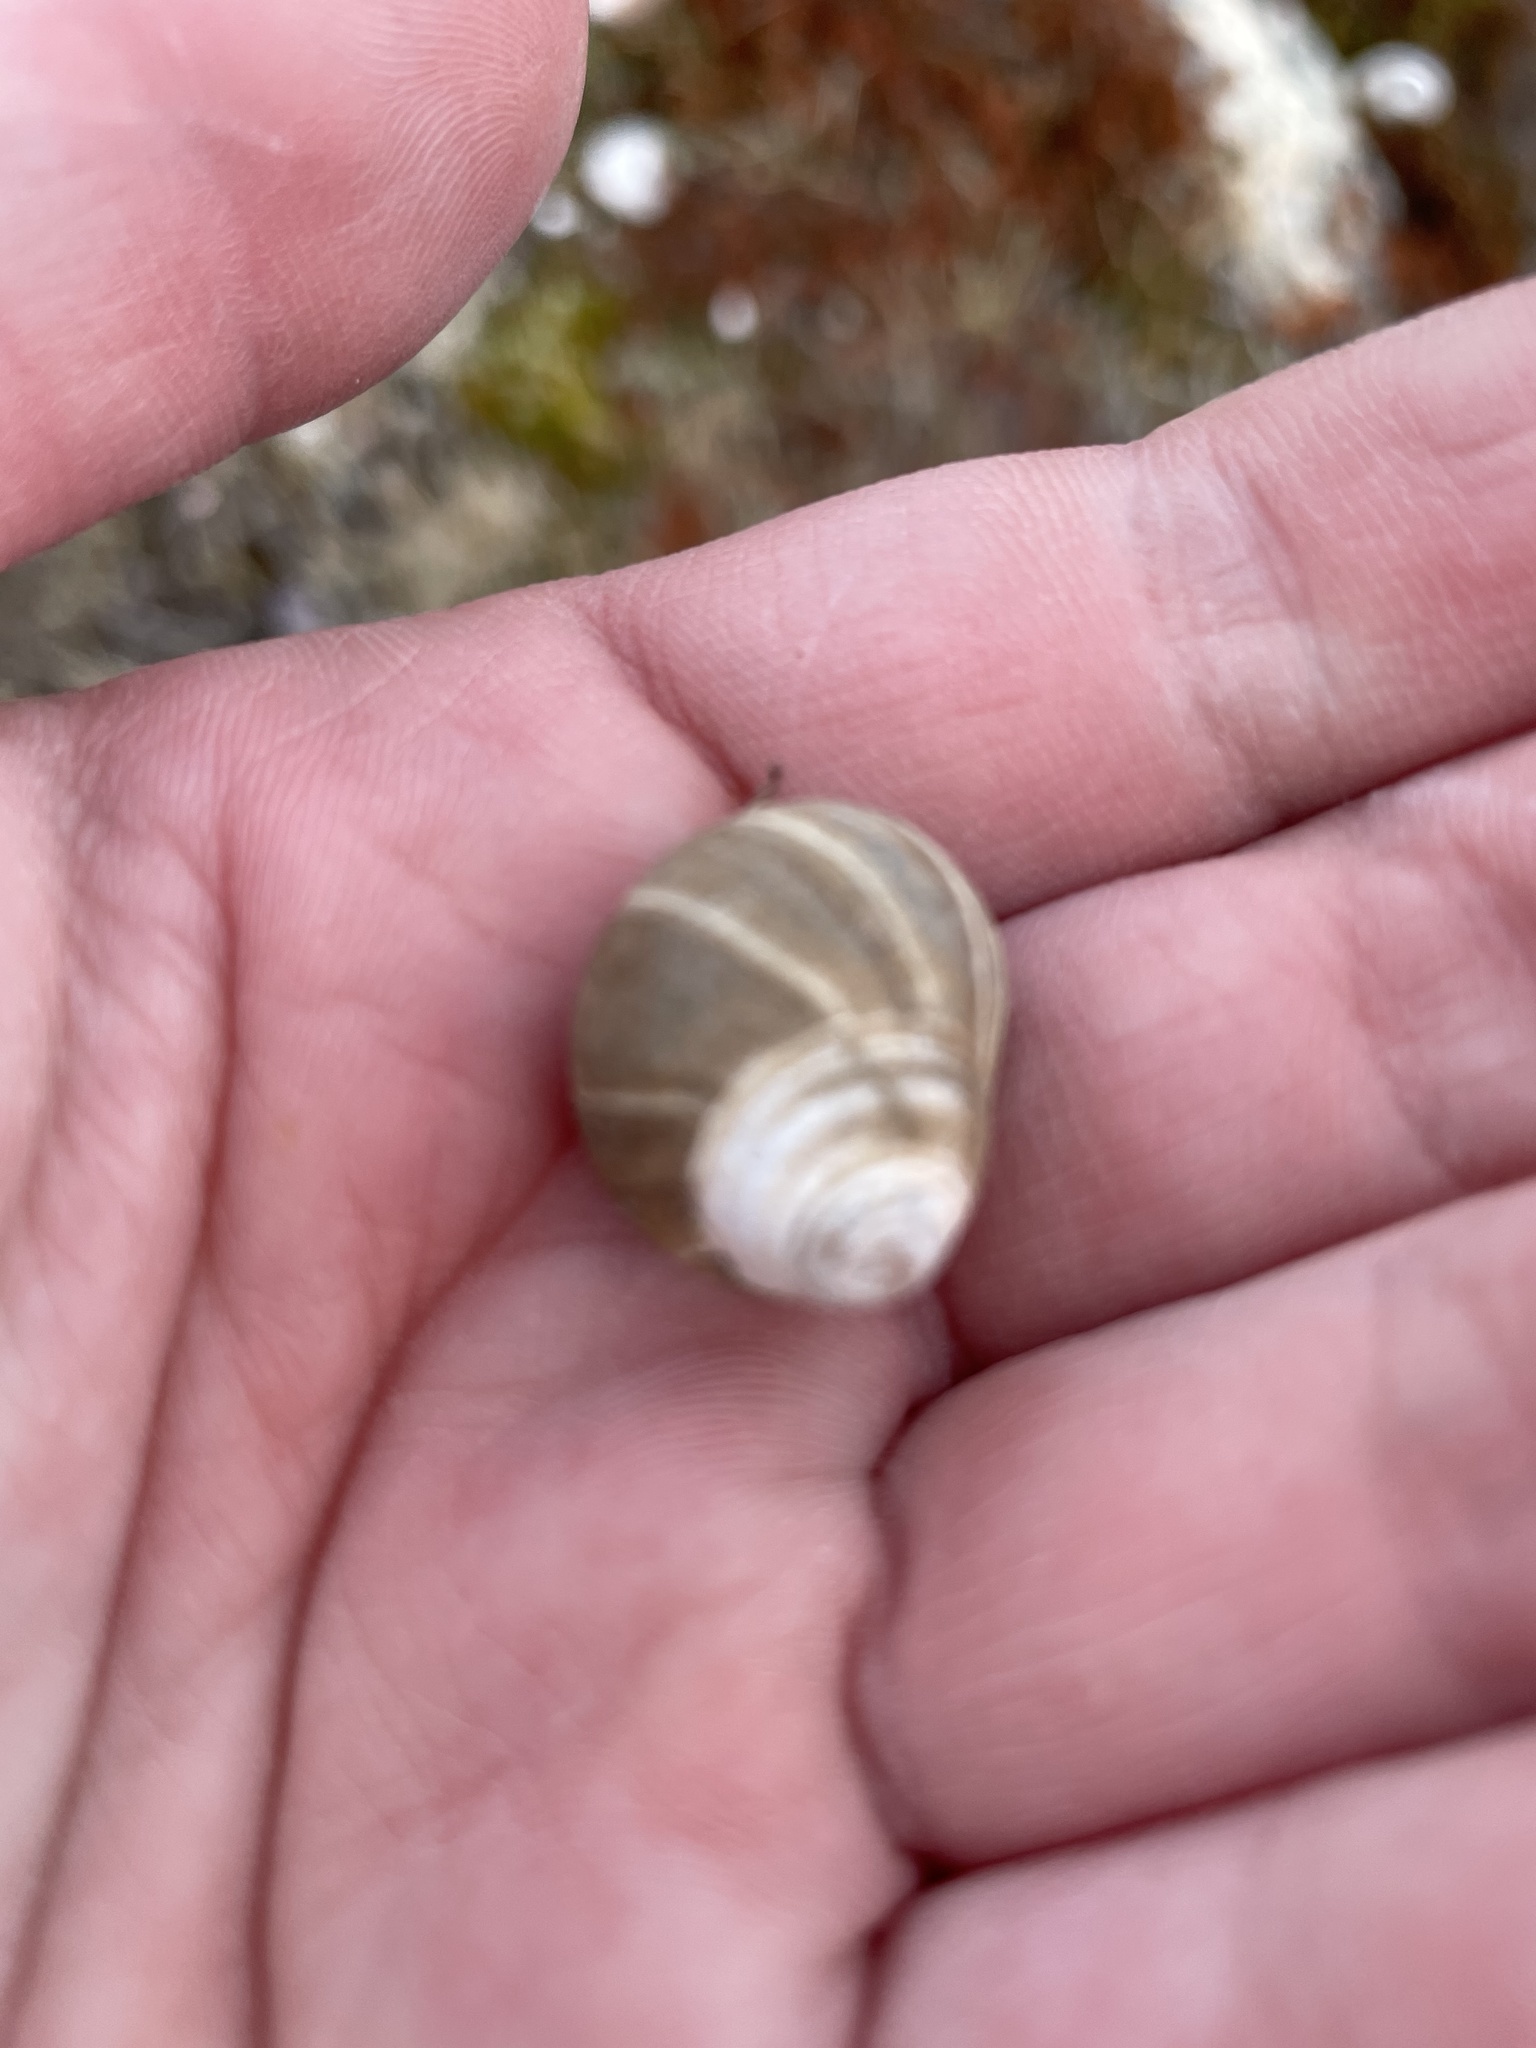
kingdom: Animalia
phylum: Mollusca
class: Gastropoda
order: Littorinimorpha
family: Littorinidae
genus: Littorina
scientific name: Littorina littorea
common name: Common periwinkle
